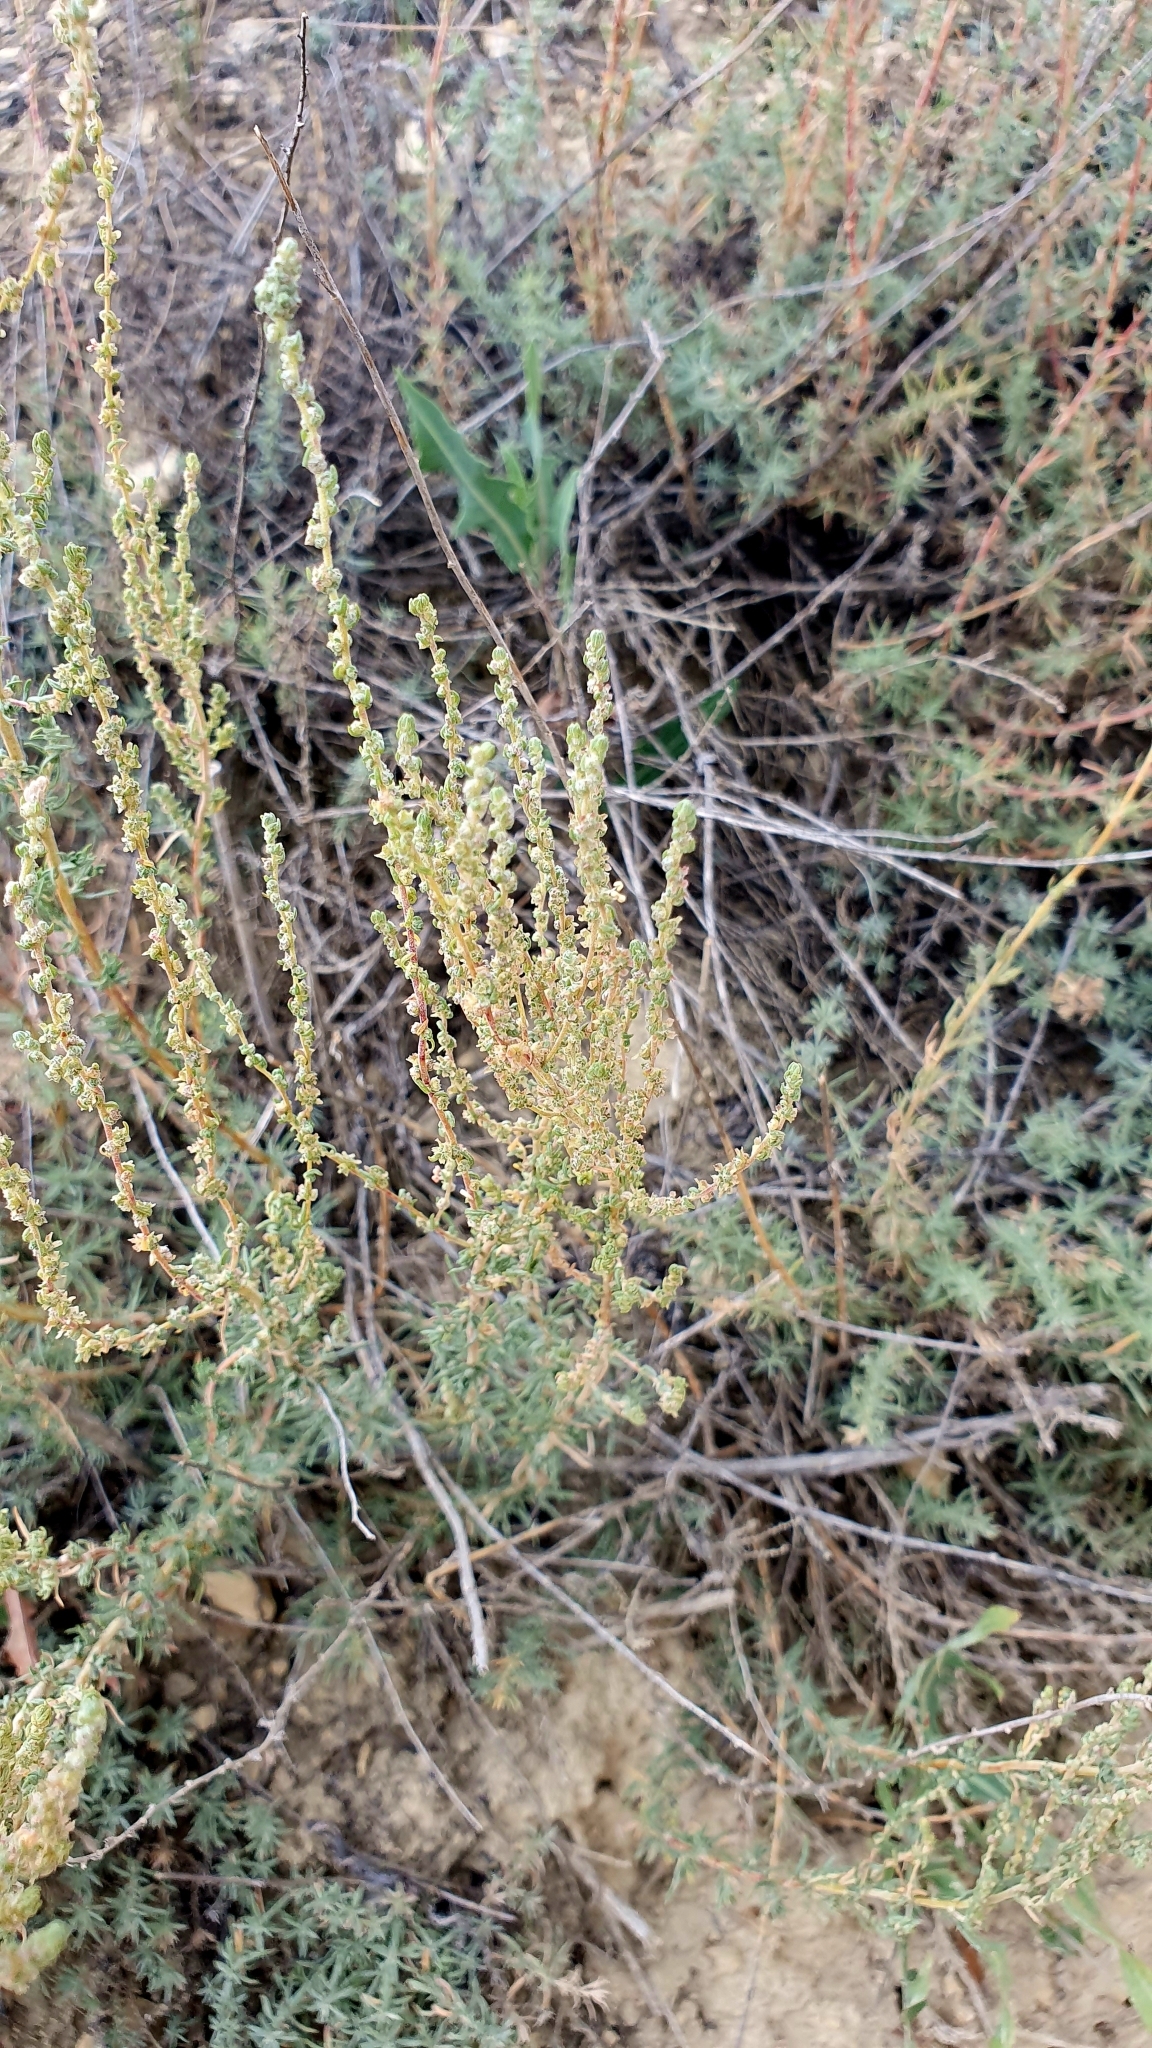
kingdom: Plantae
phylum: Tracheophyta
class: Magnoliopsida
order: Caryophyllales
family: Amaranthaceae
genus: Bassia
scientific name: Bassia prostrata
